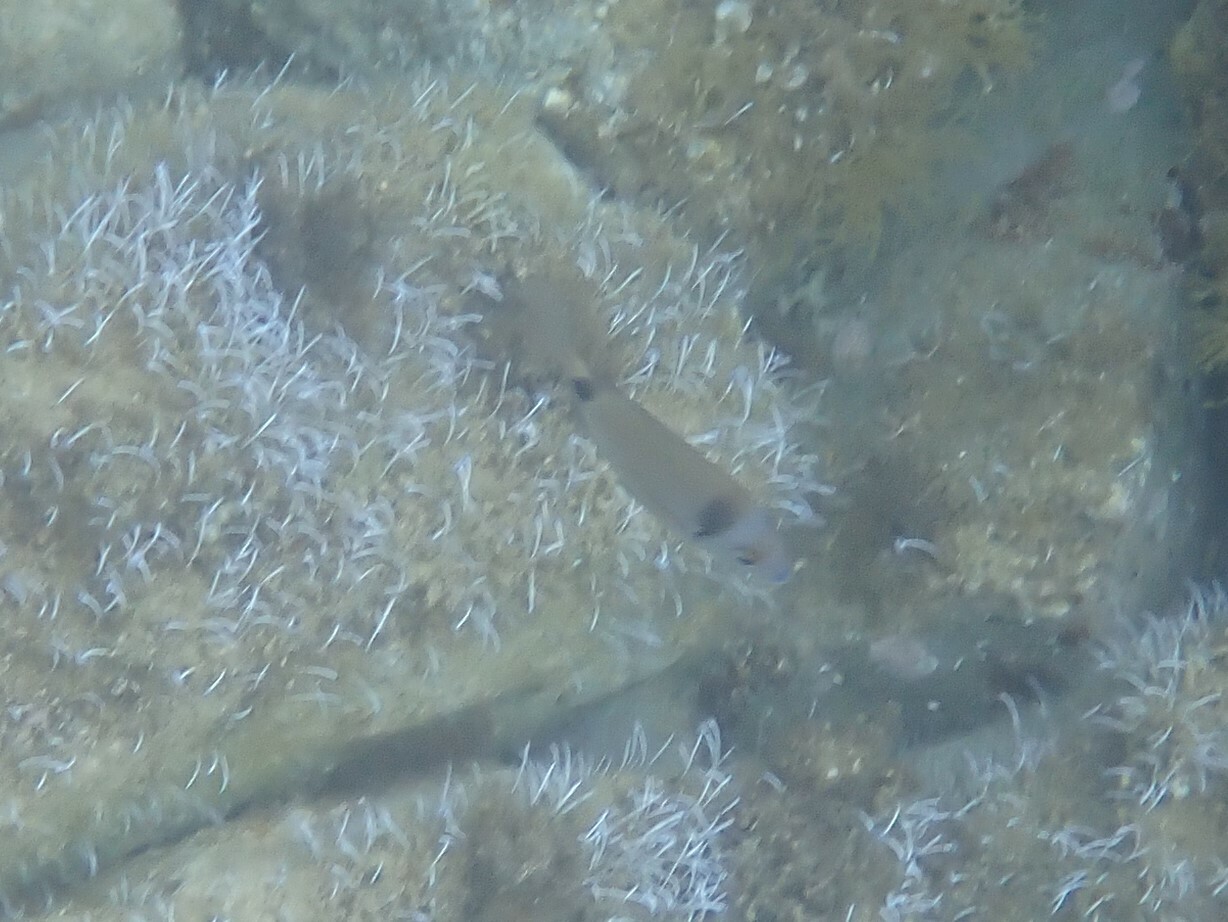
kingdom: Animalia
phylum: Chordata
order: Perciformes
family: Sparidae
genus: Diplodus
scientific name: Diplodus vulgaris
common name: Common two-banded seabream
